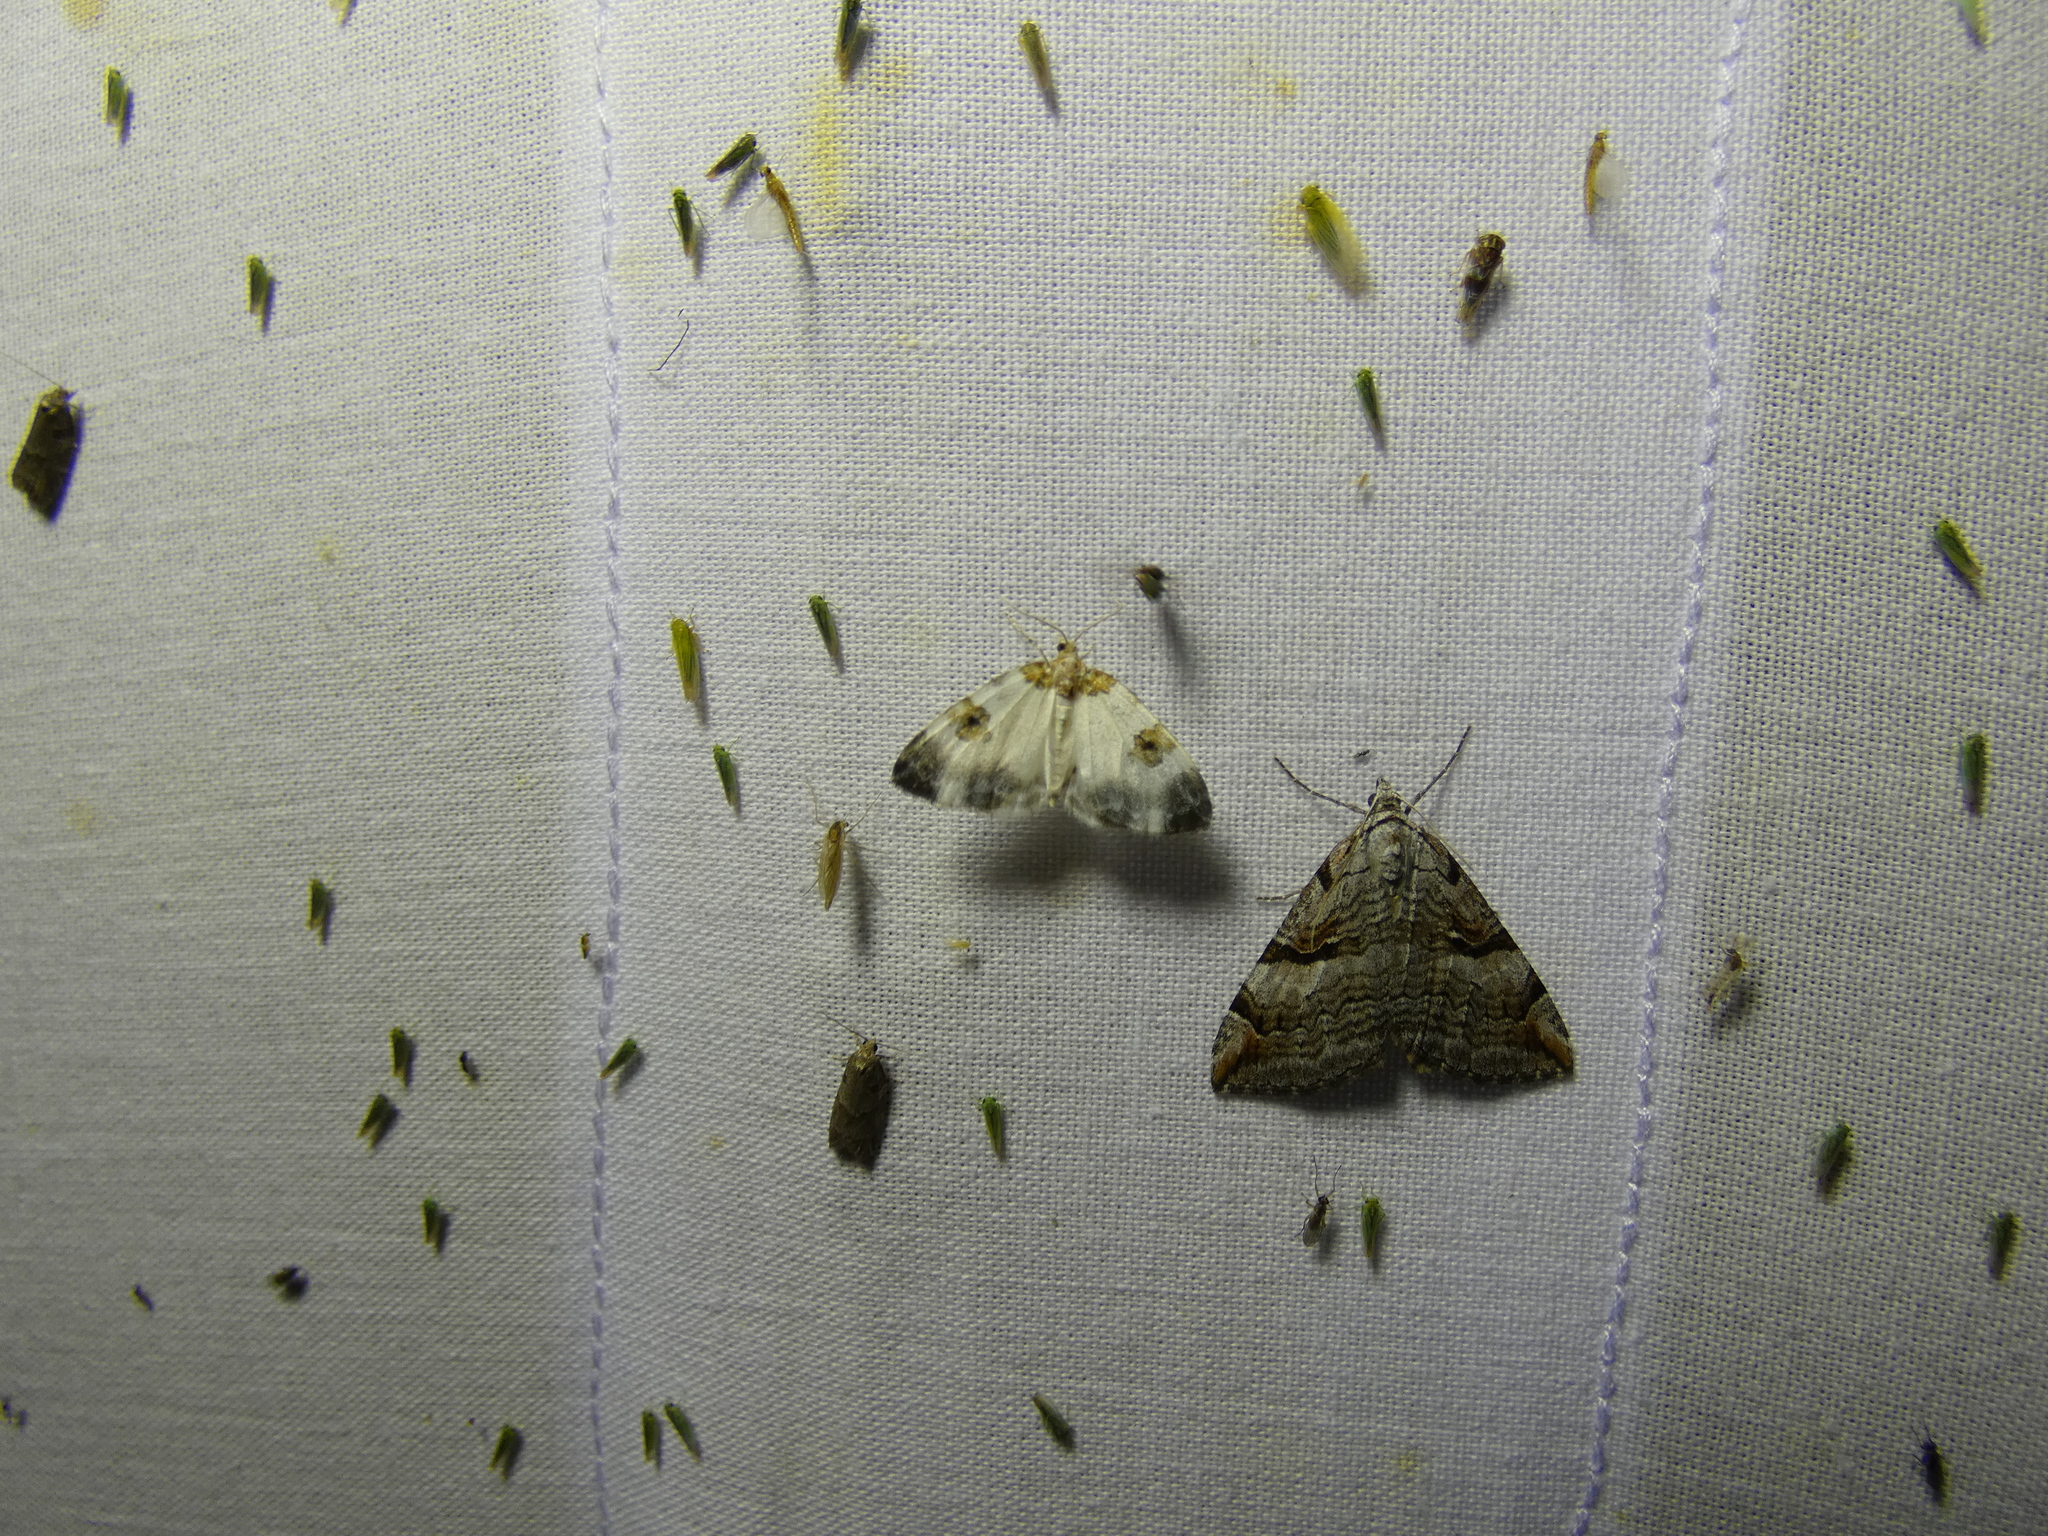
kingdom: Animalia
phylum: Arthropoda
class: Insecta
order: Lepidoptera
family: Geometridae
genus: Aplocera
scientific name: Aplocera praeformata
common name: Purple treble-bar
